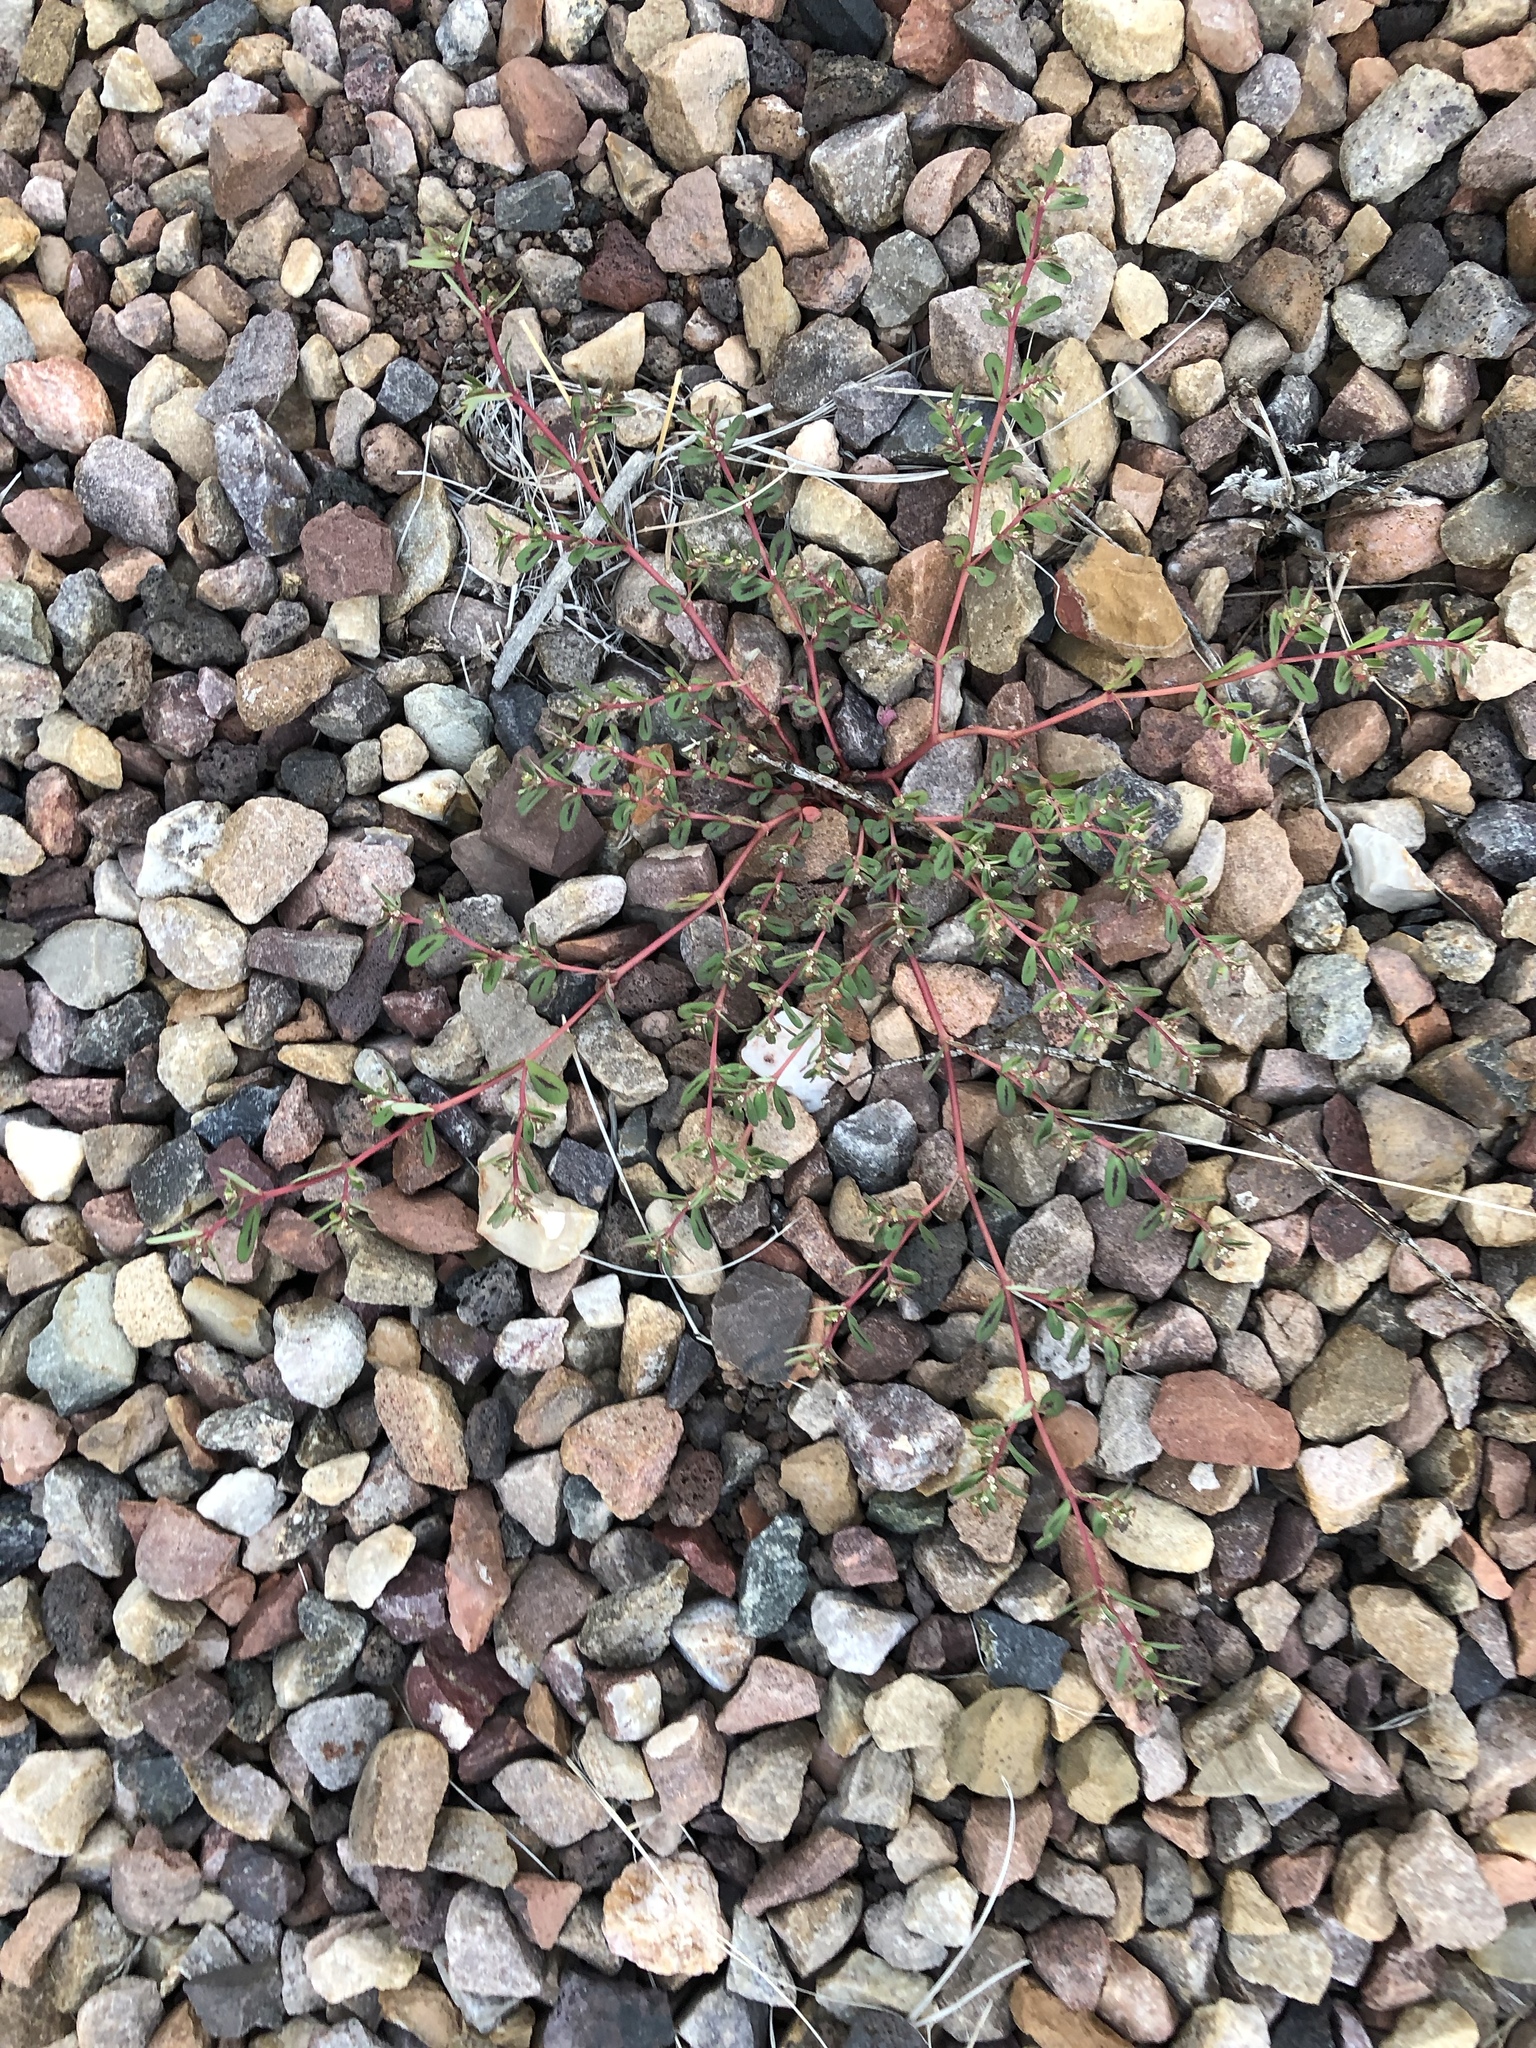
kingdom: Plantae
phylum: Tracheophyta
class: Magnoliopsida
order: Malpighiales
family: Euphorbiaceae
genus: Euphorbia
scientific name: Euphorbia serpillifolia
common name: Thyme-leaf spurge
